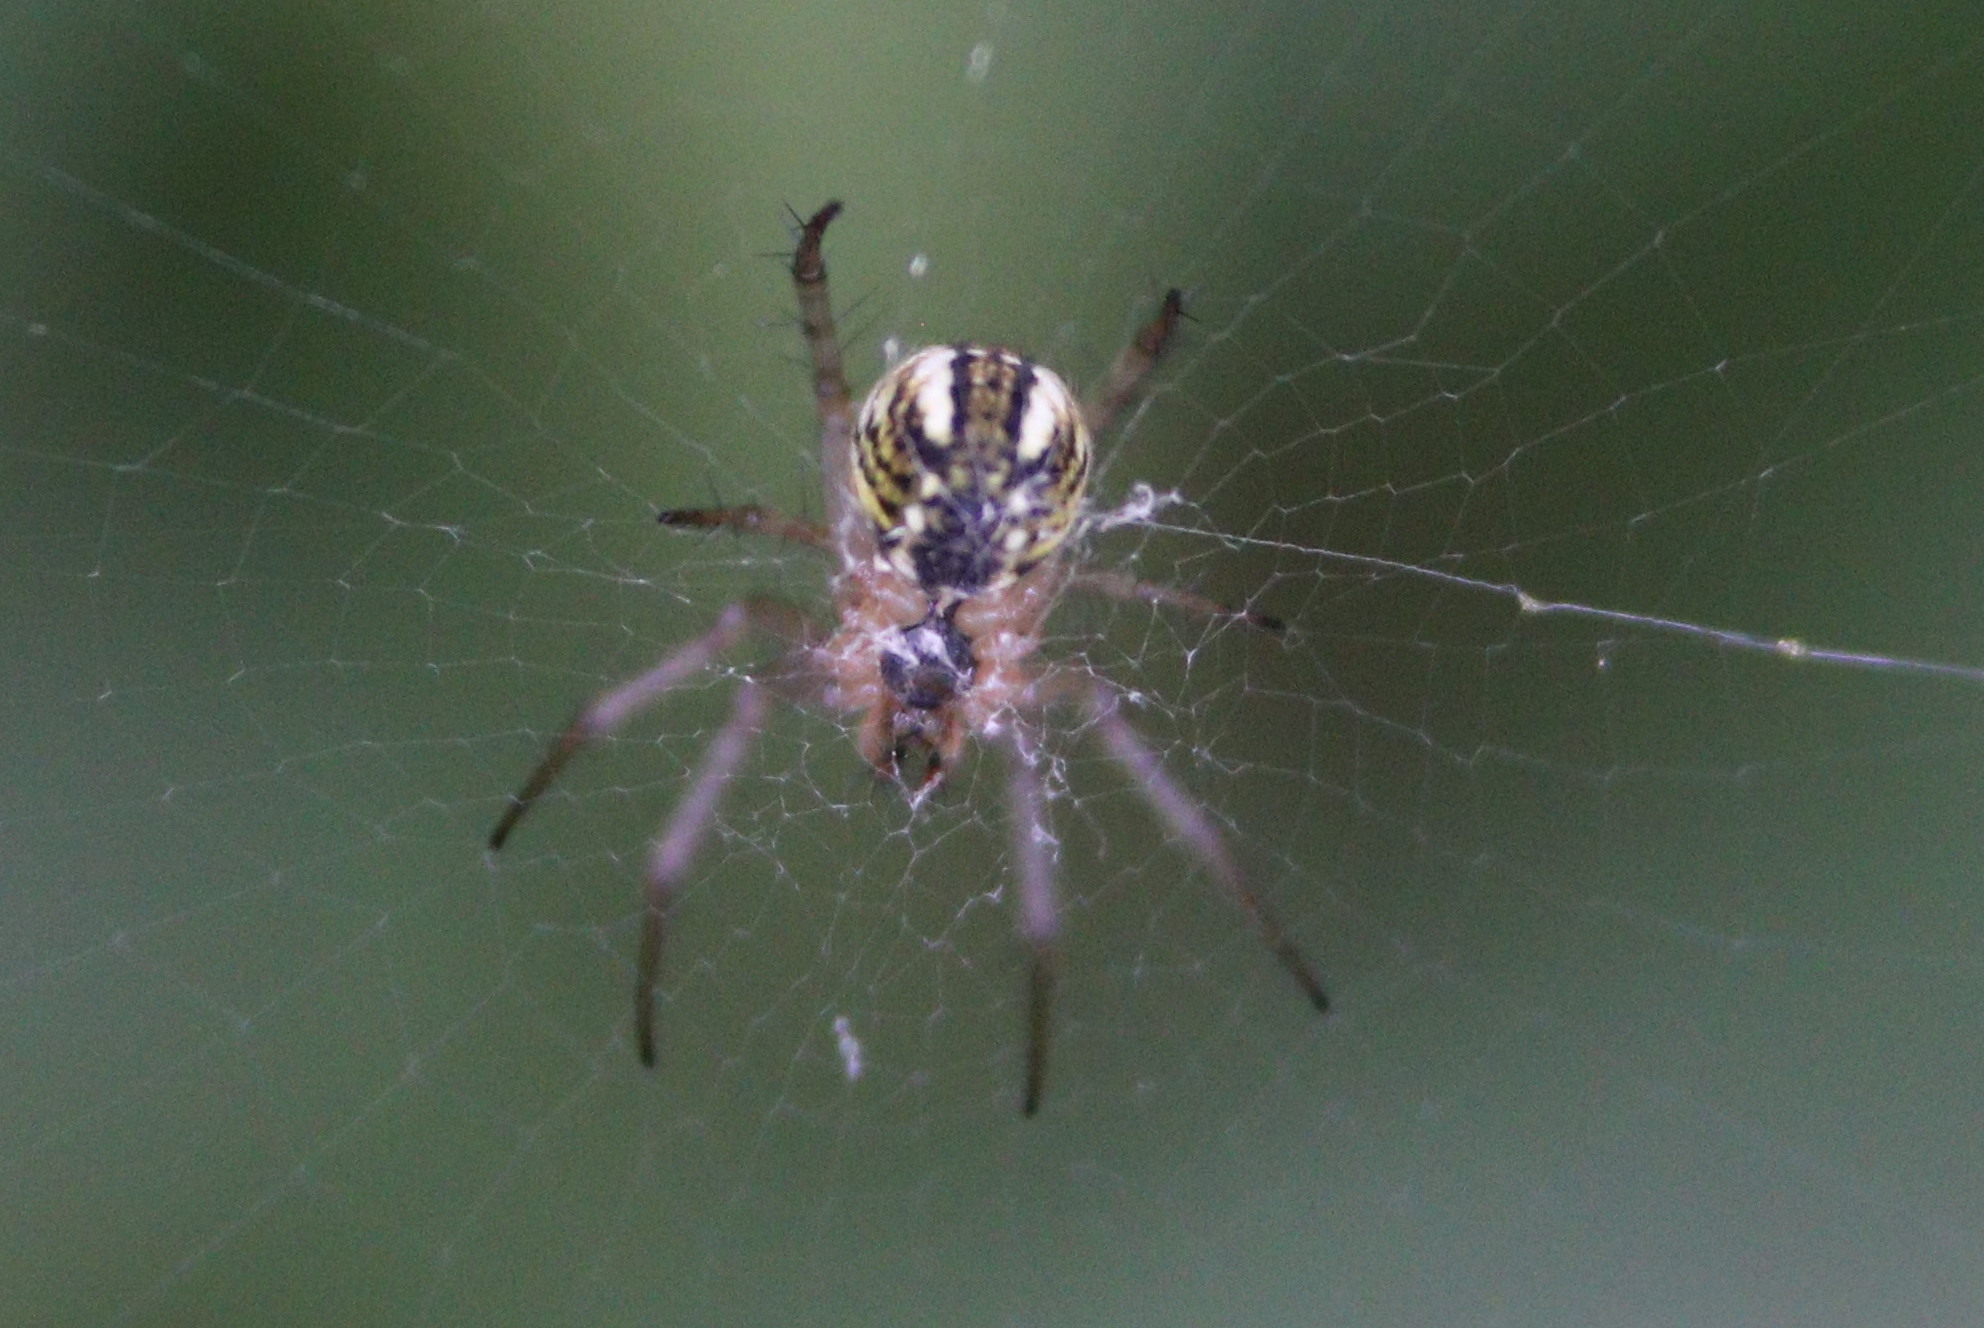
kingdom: Animalia
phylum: Arthropoda
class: Arachnida
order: Araneae
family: Araneidae
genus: Mangora
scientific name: Mangora acalypha
